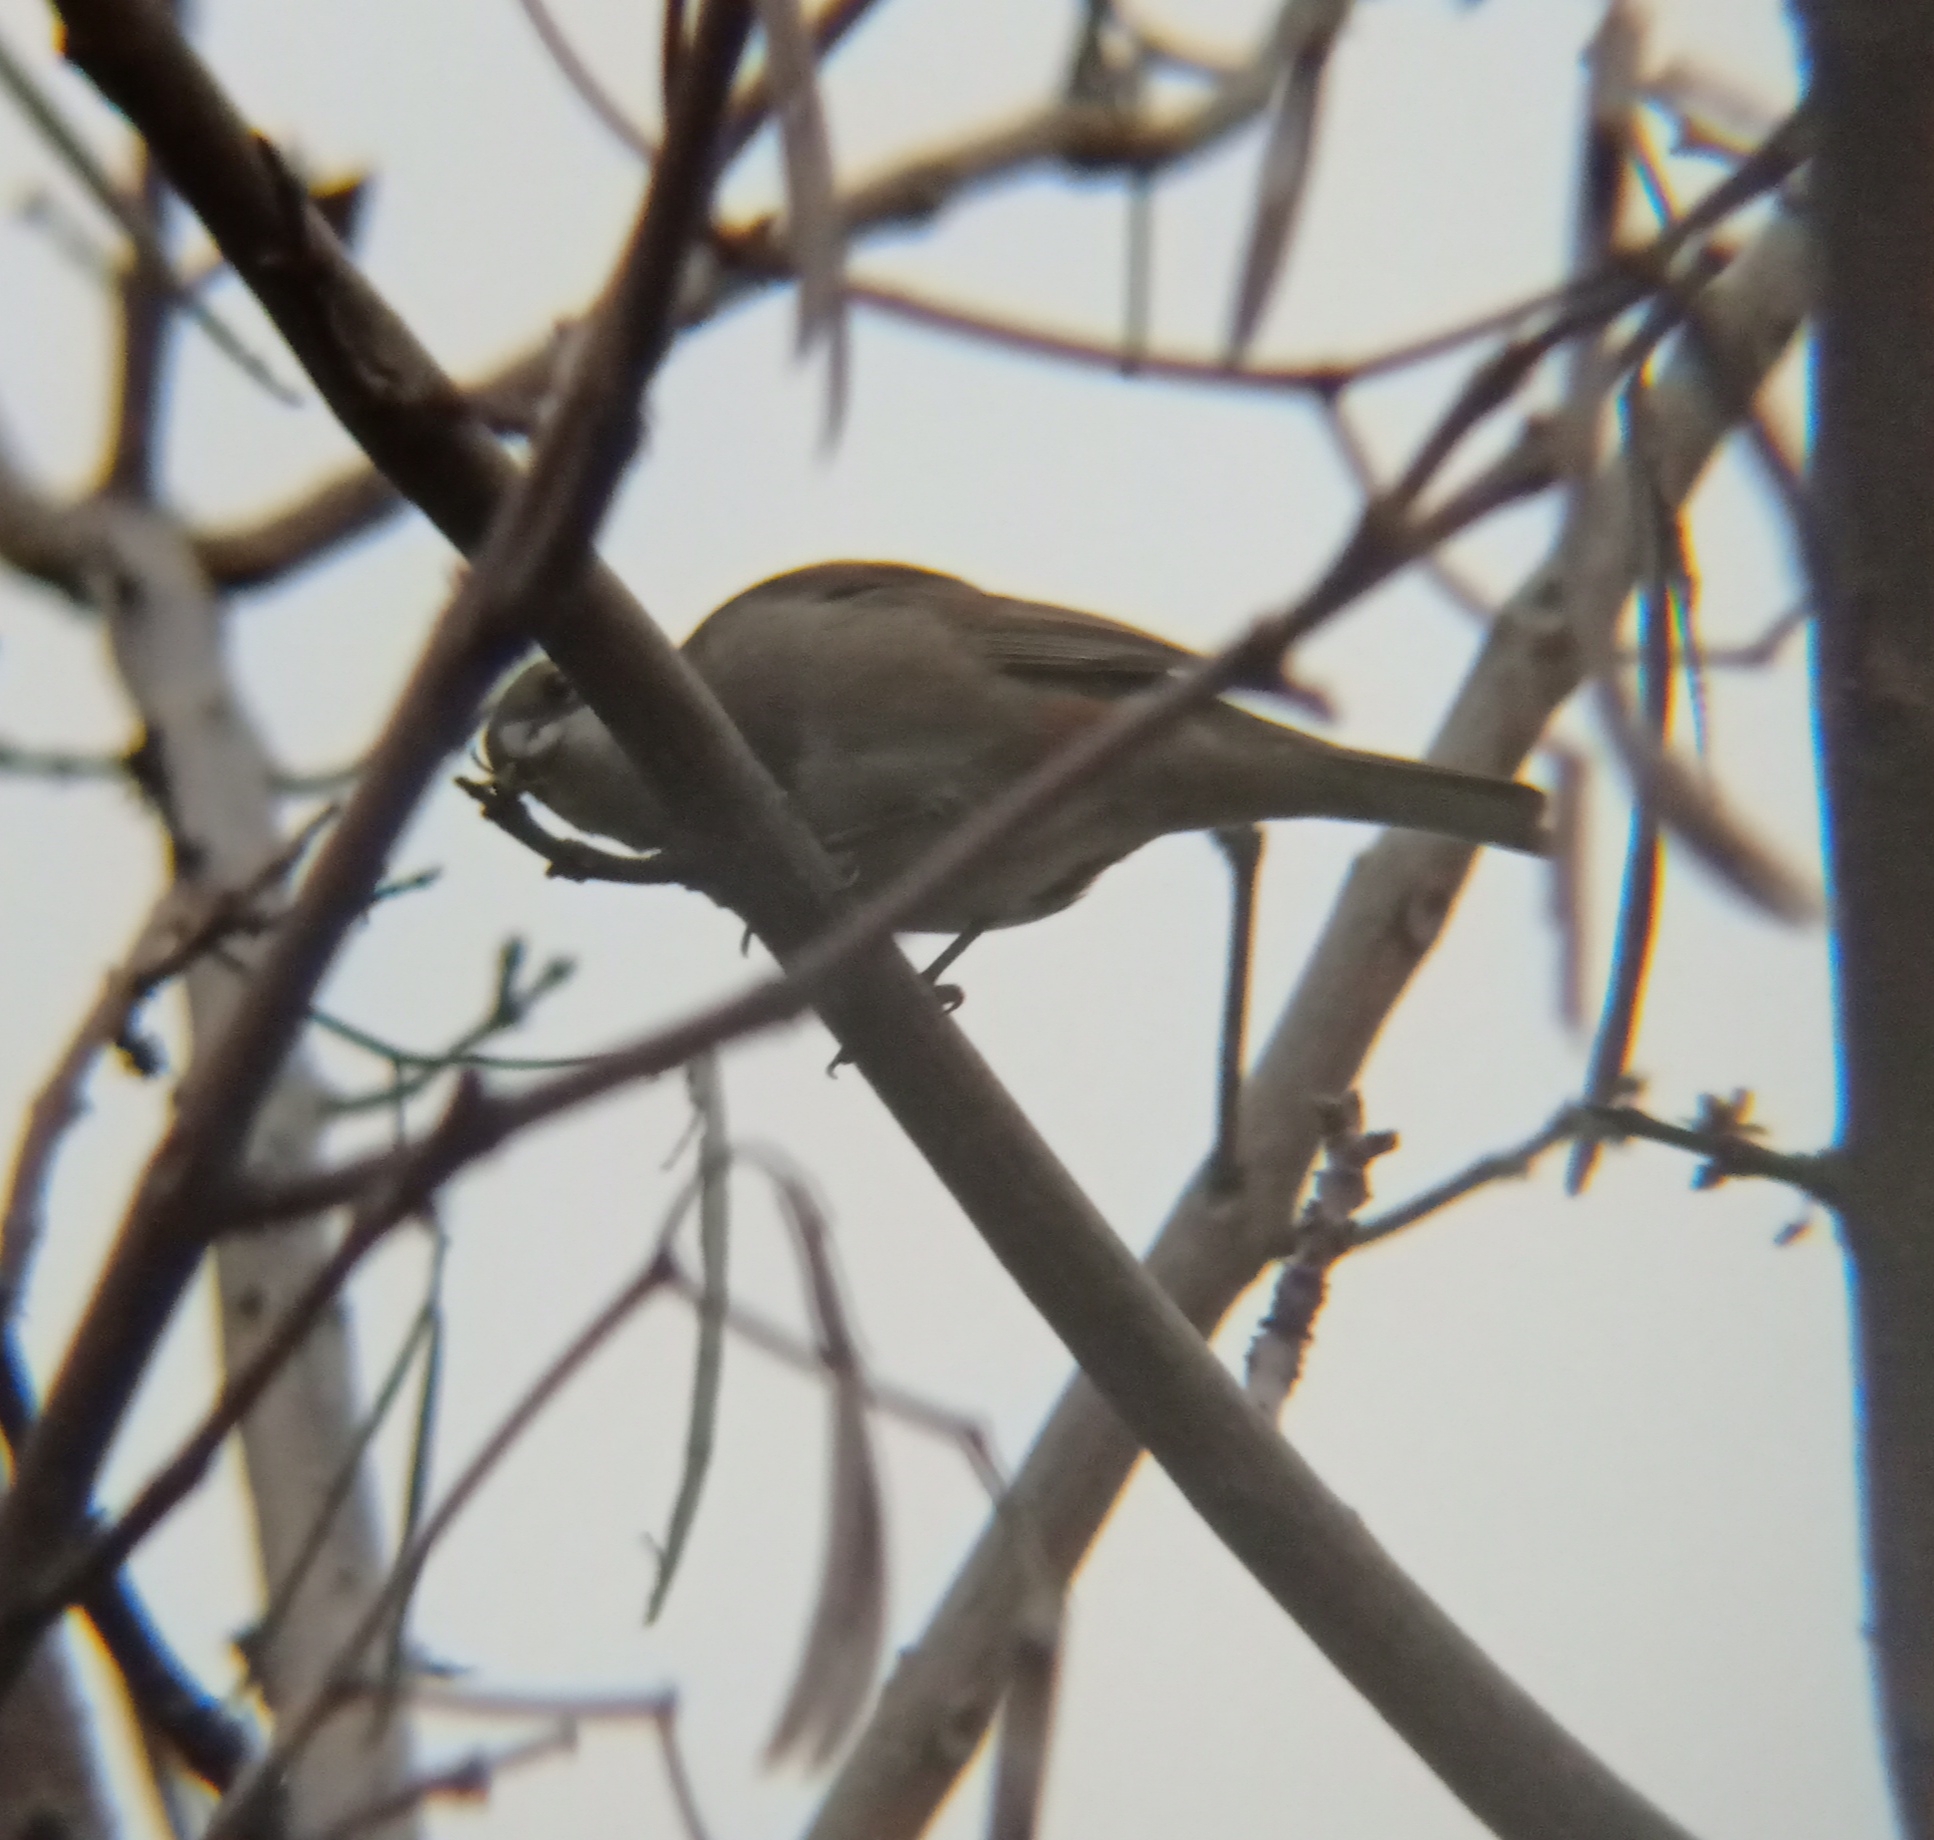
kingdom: Animalia
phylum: Chordata
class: Aves
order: Passeriformes
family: Thraupidae
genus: Diuca
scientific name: Diuca diuca
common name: Common diuca finch
